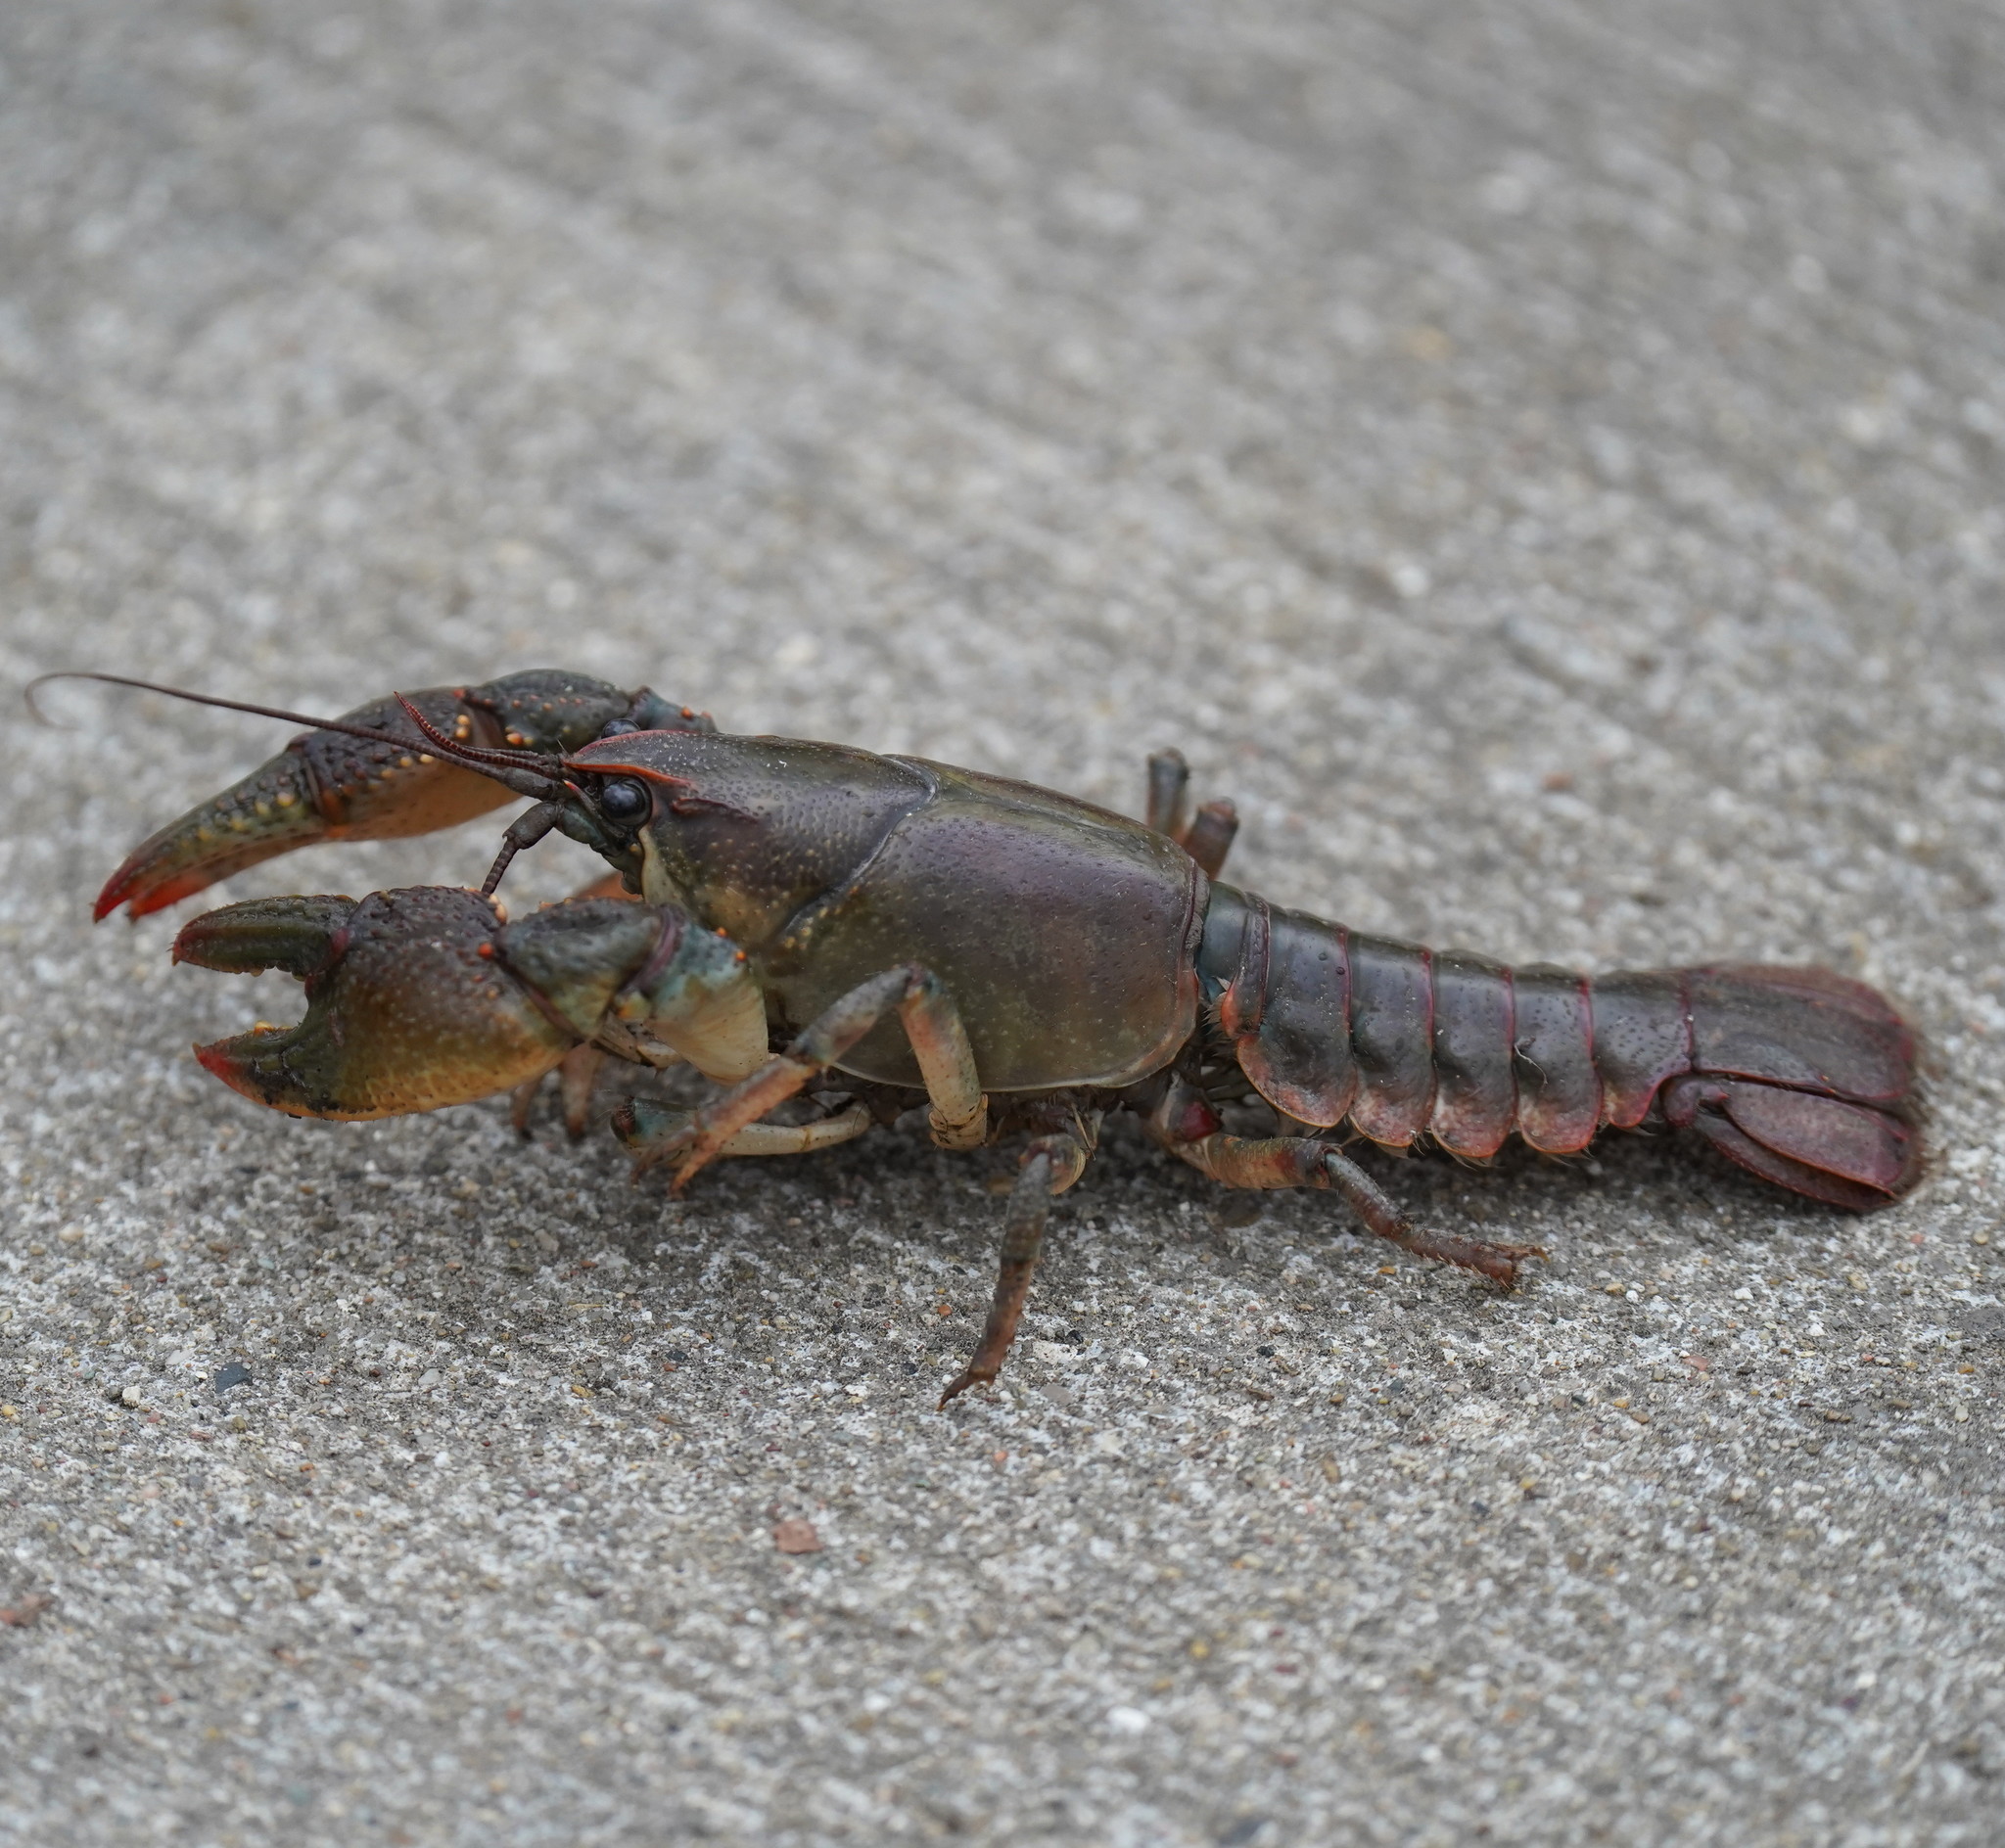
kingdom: Animalia
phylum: Arthropoda
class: Malacostraca
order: Decapoda
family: Cambaridae
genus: Lacunicambarus
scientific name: Lacunicambarus polychromatus
